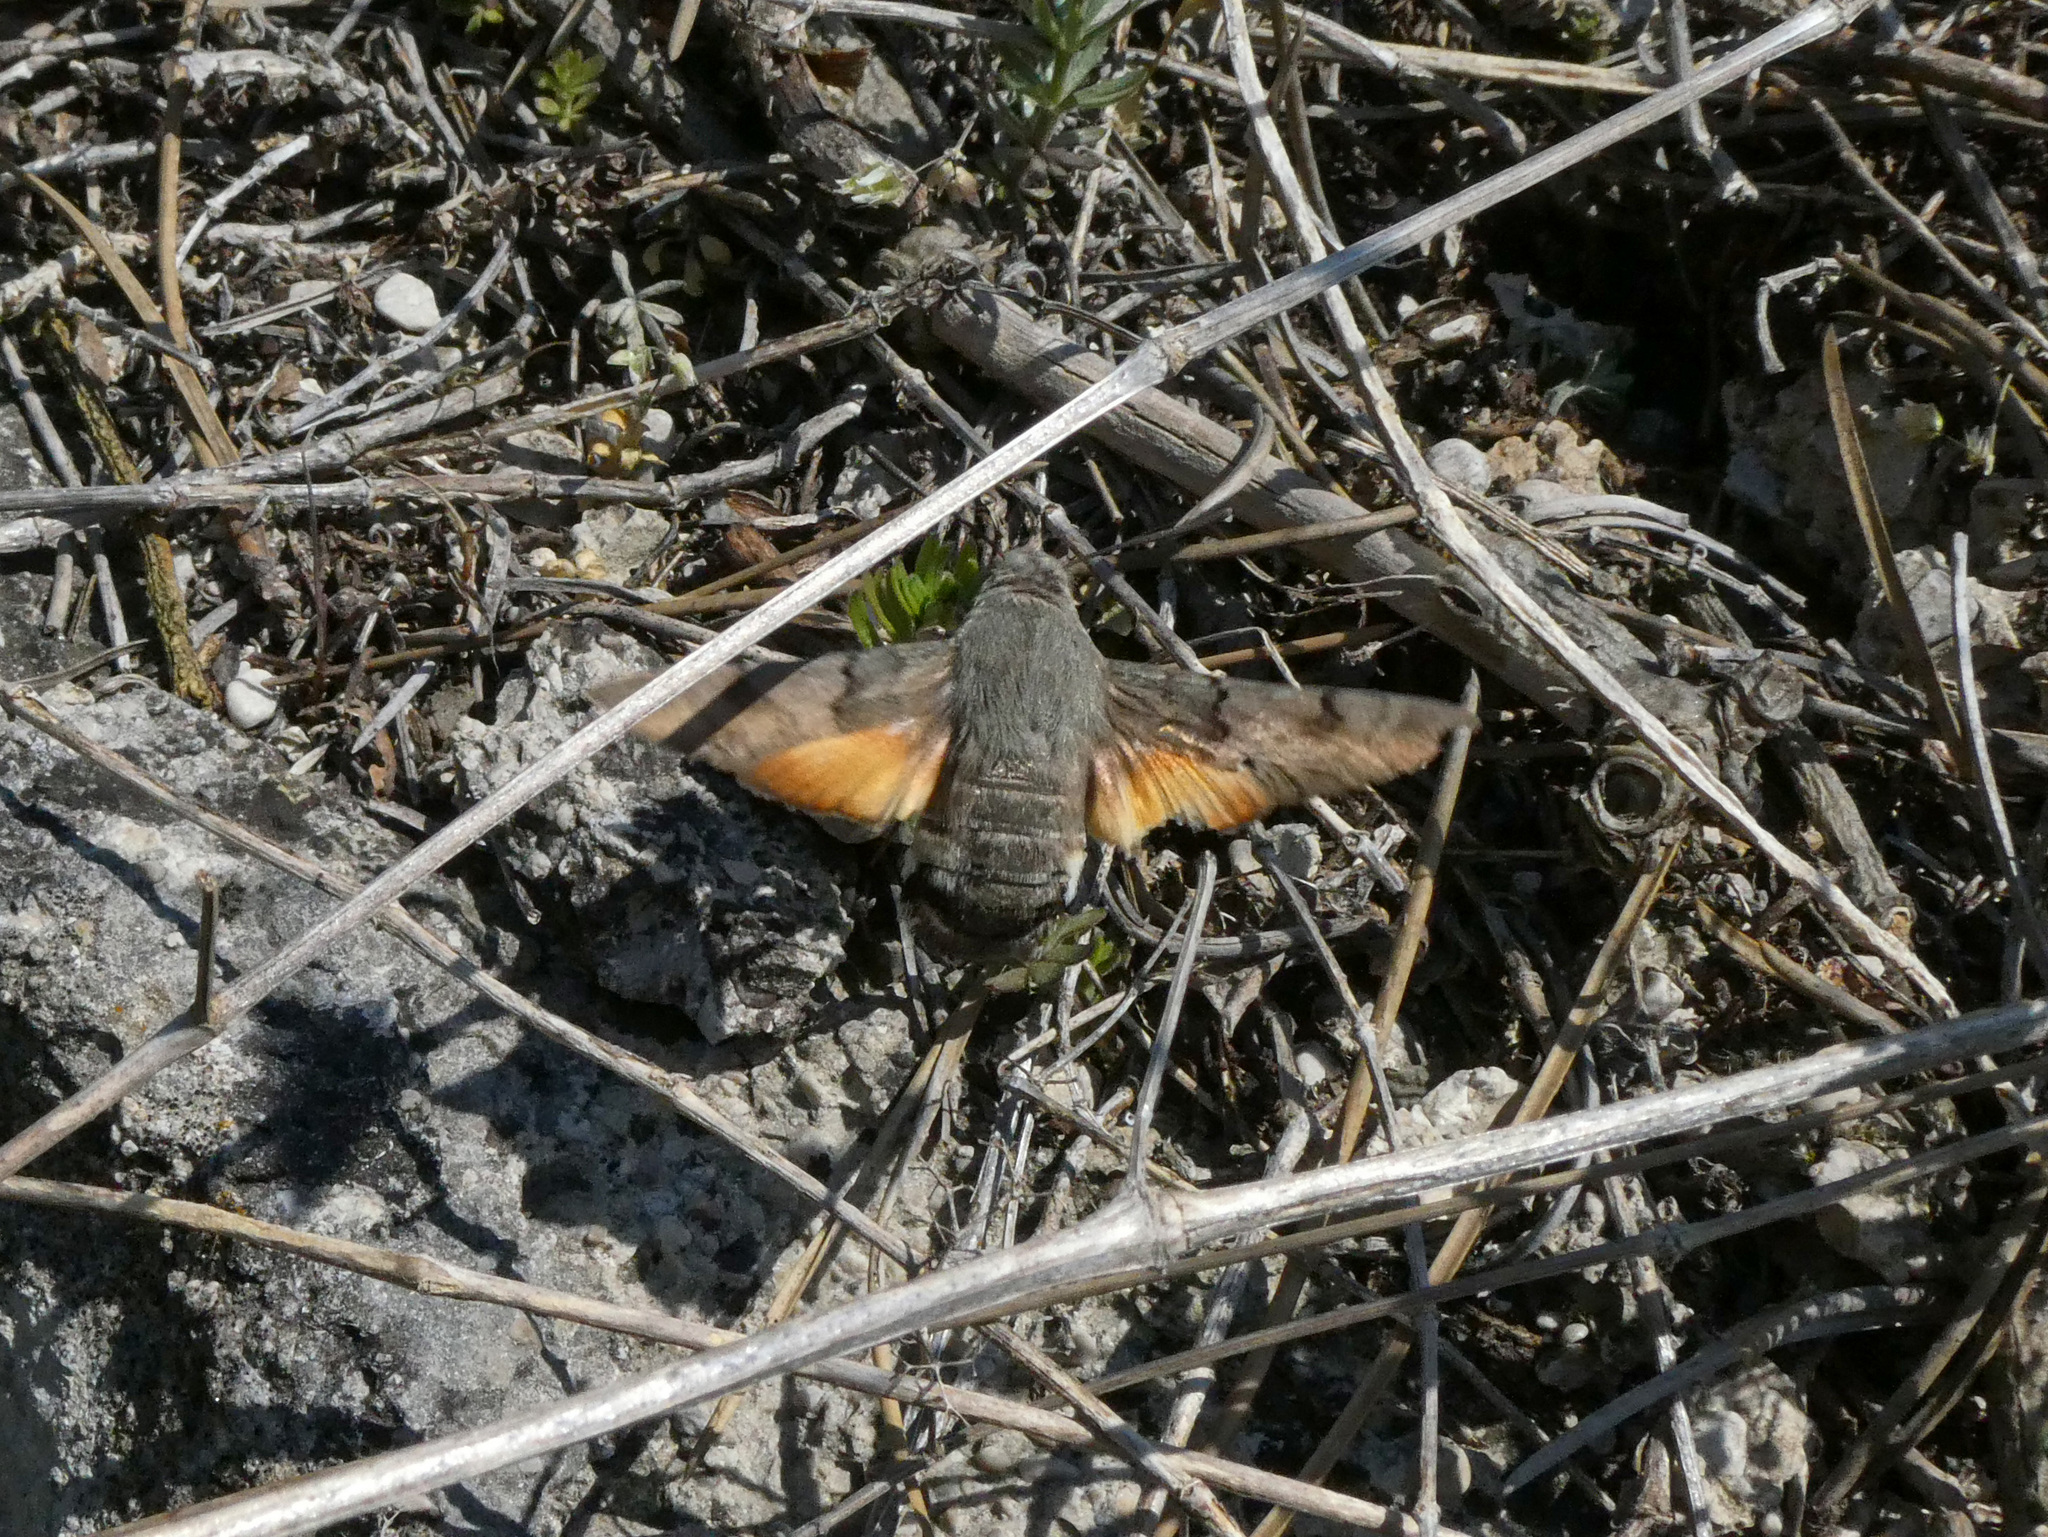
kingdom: Animalia
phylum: Arthropoda
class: Insecta
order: Lepidoptera
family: Sphingidae
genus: Macroglossum
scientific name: Macroglossum stellatarum
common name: Humming-bird hawk-moth
